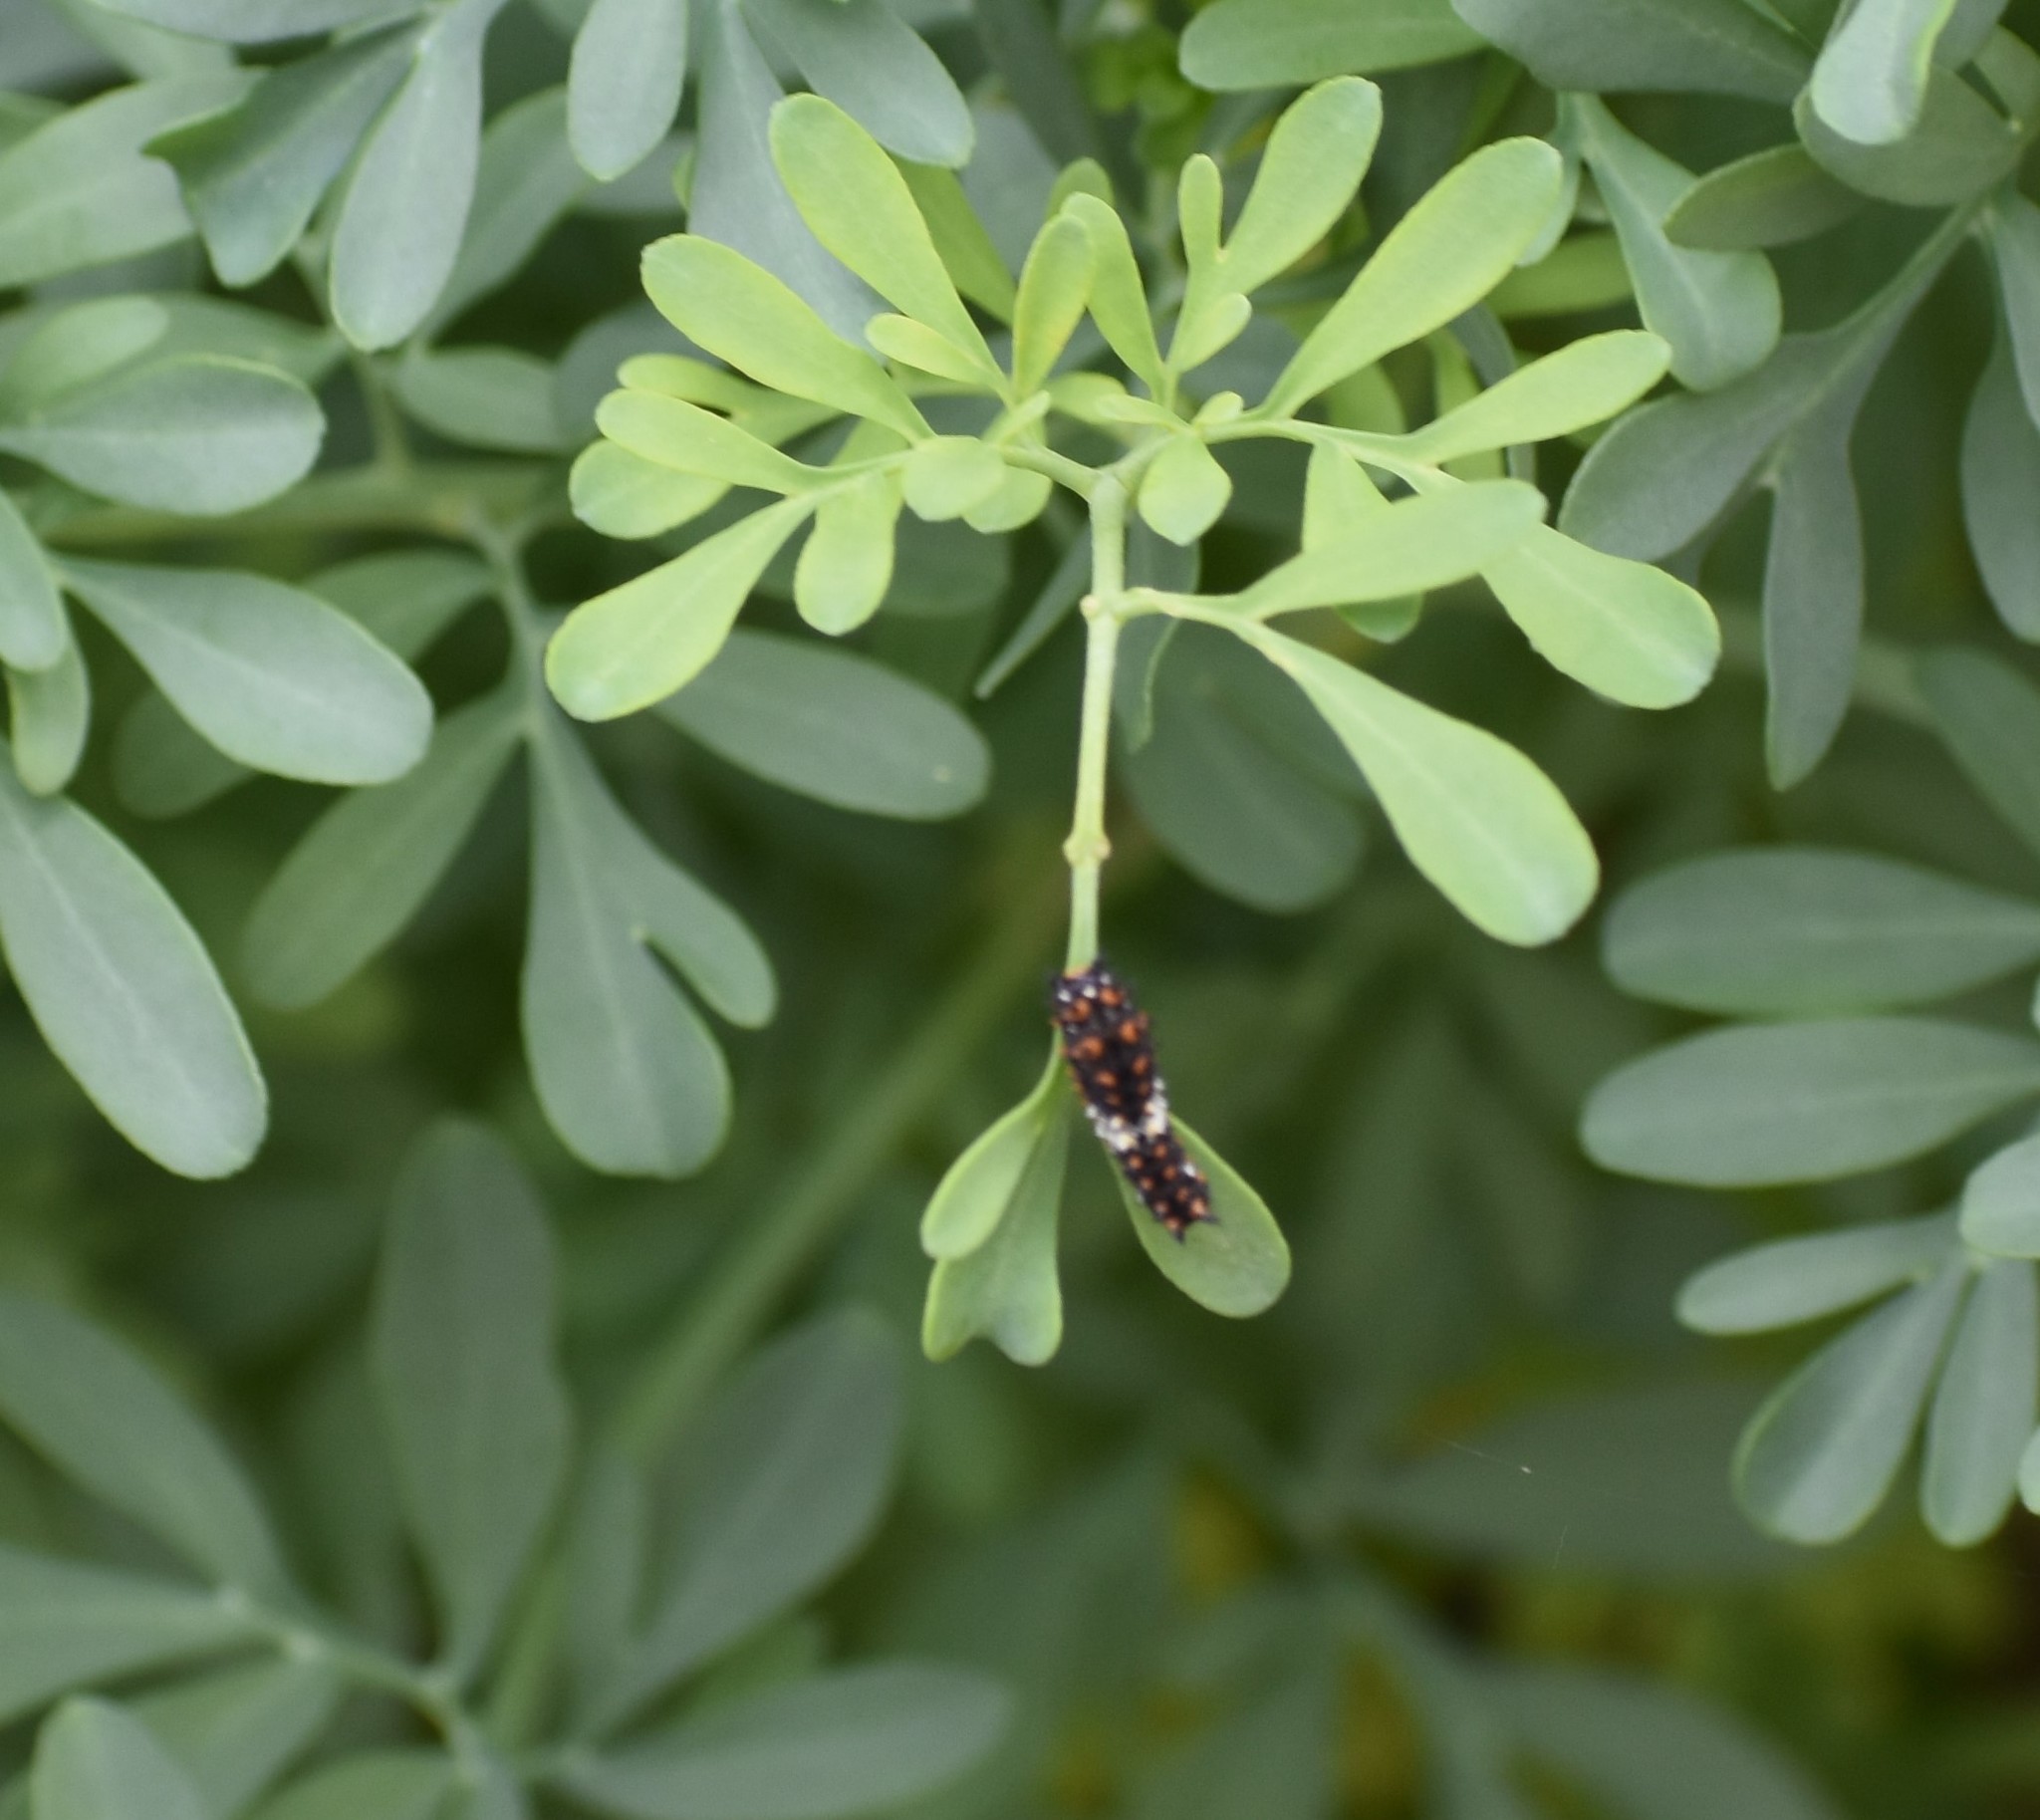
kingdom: Animalia
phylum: Arthropoda
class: Insecta
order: Lepidoptera
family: Papilionidae
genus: Papilio
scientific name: Papilio polyxenes
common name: Black swallowtail
